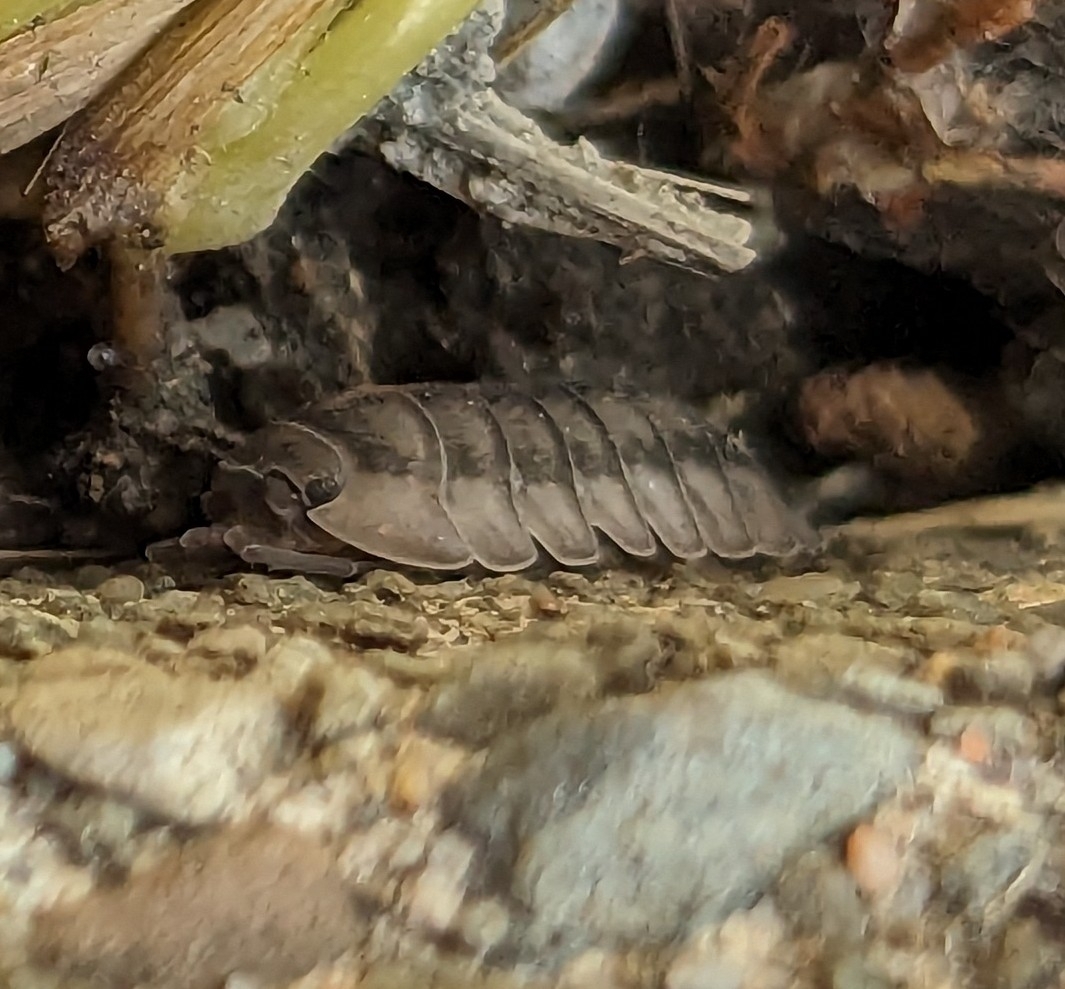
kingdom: Animalia
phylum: Arthropoda
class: Malacostraca
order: Isopoda
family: Armadillidiidae
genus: Armadillidium
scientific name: Armadillidium nasatum
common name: Isopod
